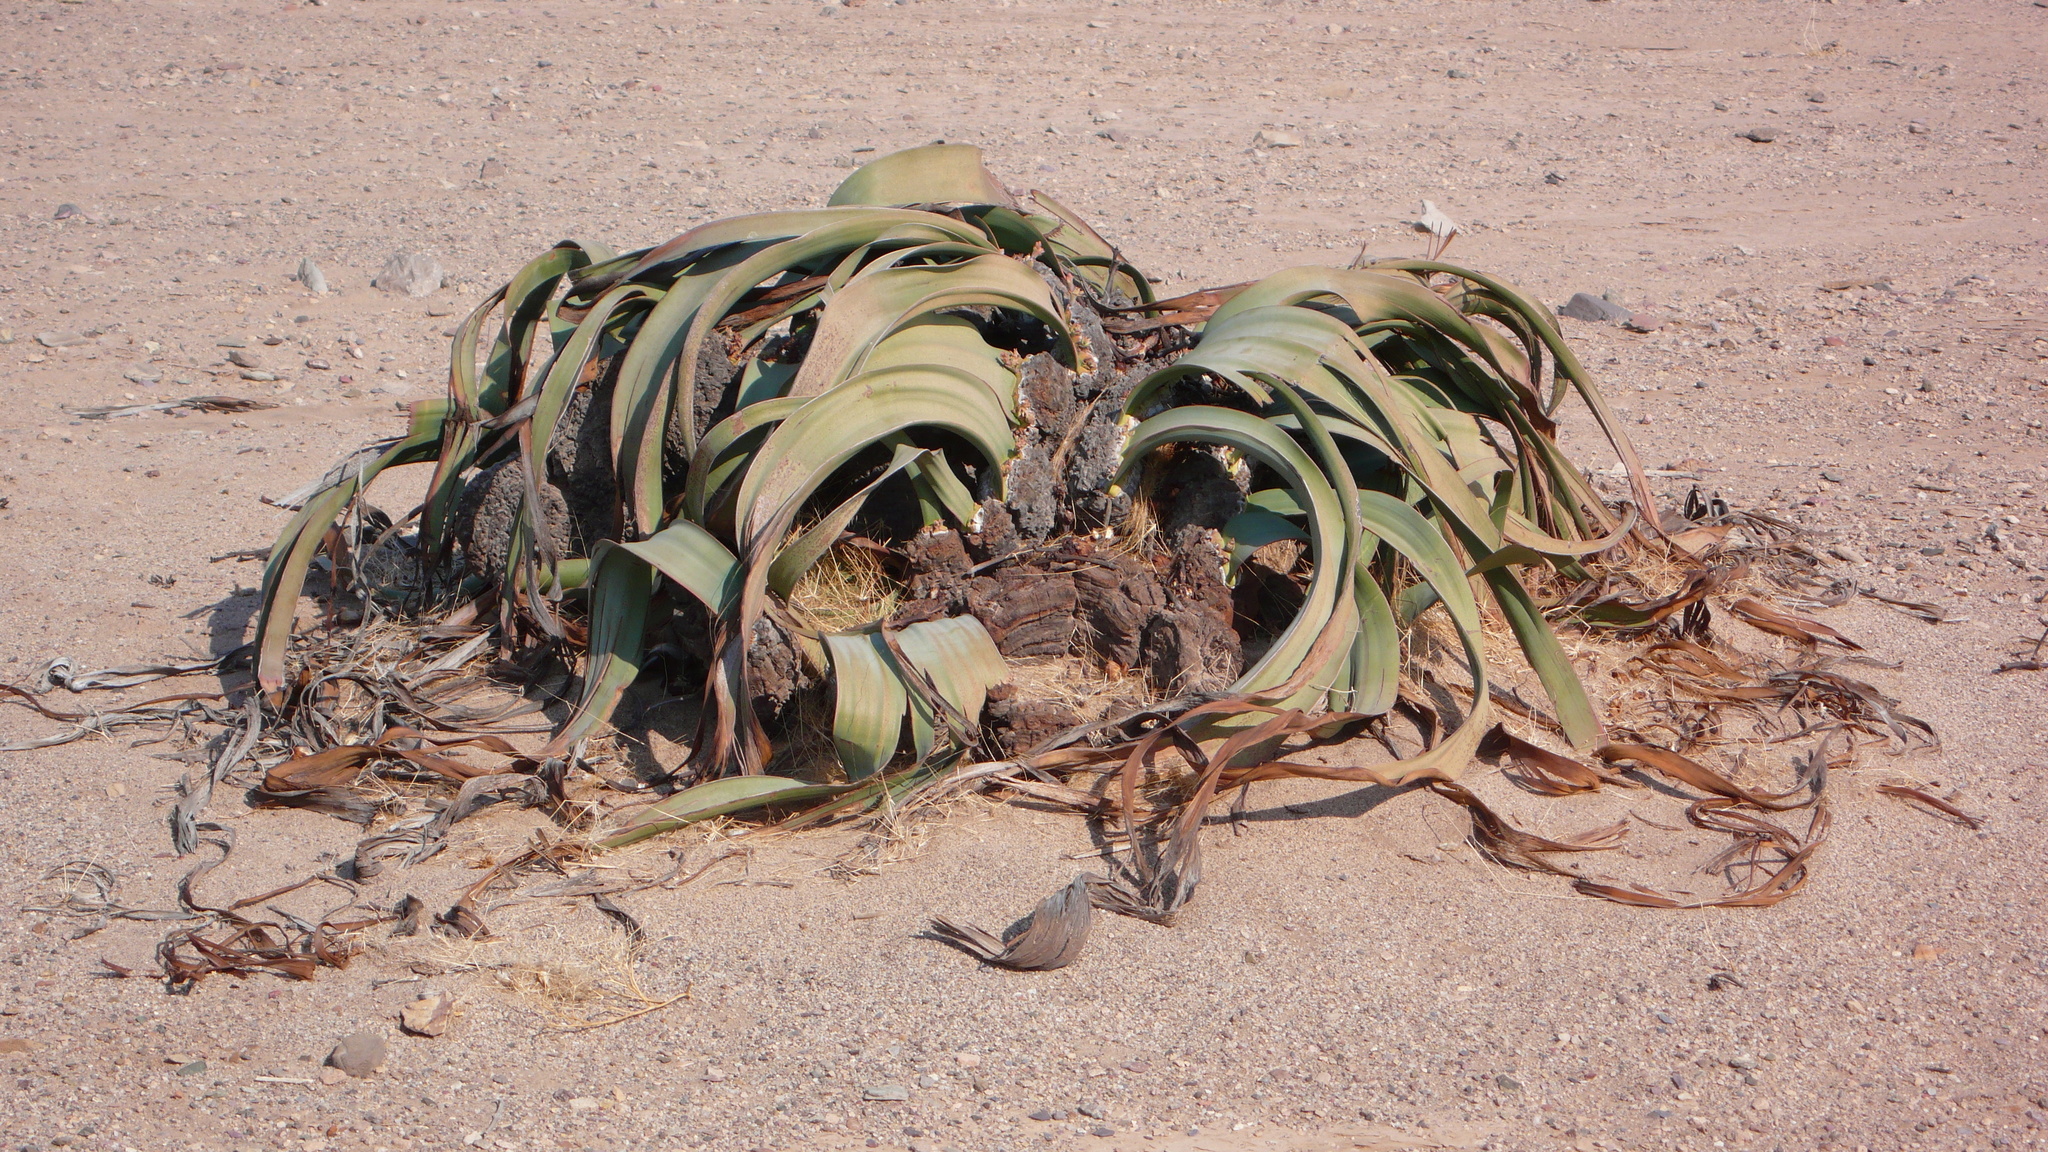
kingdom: Plantae
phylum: Tracheophyta
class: Gnetopsida
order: Welwitschiales
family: Welwitschiaceae
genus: Welwitschia
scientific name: Welwitschia mirabilis
